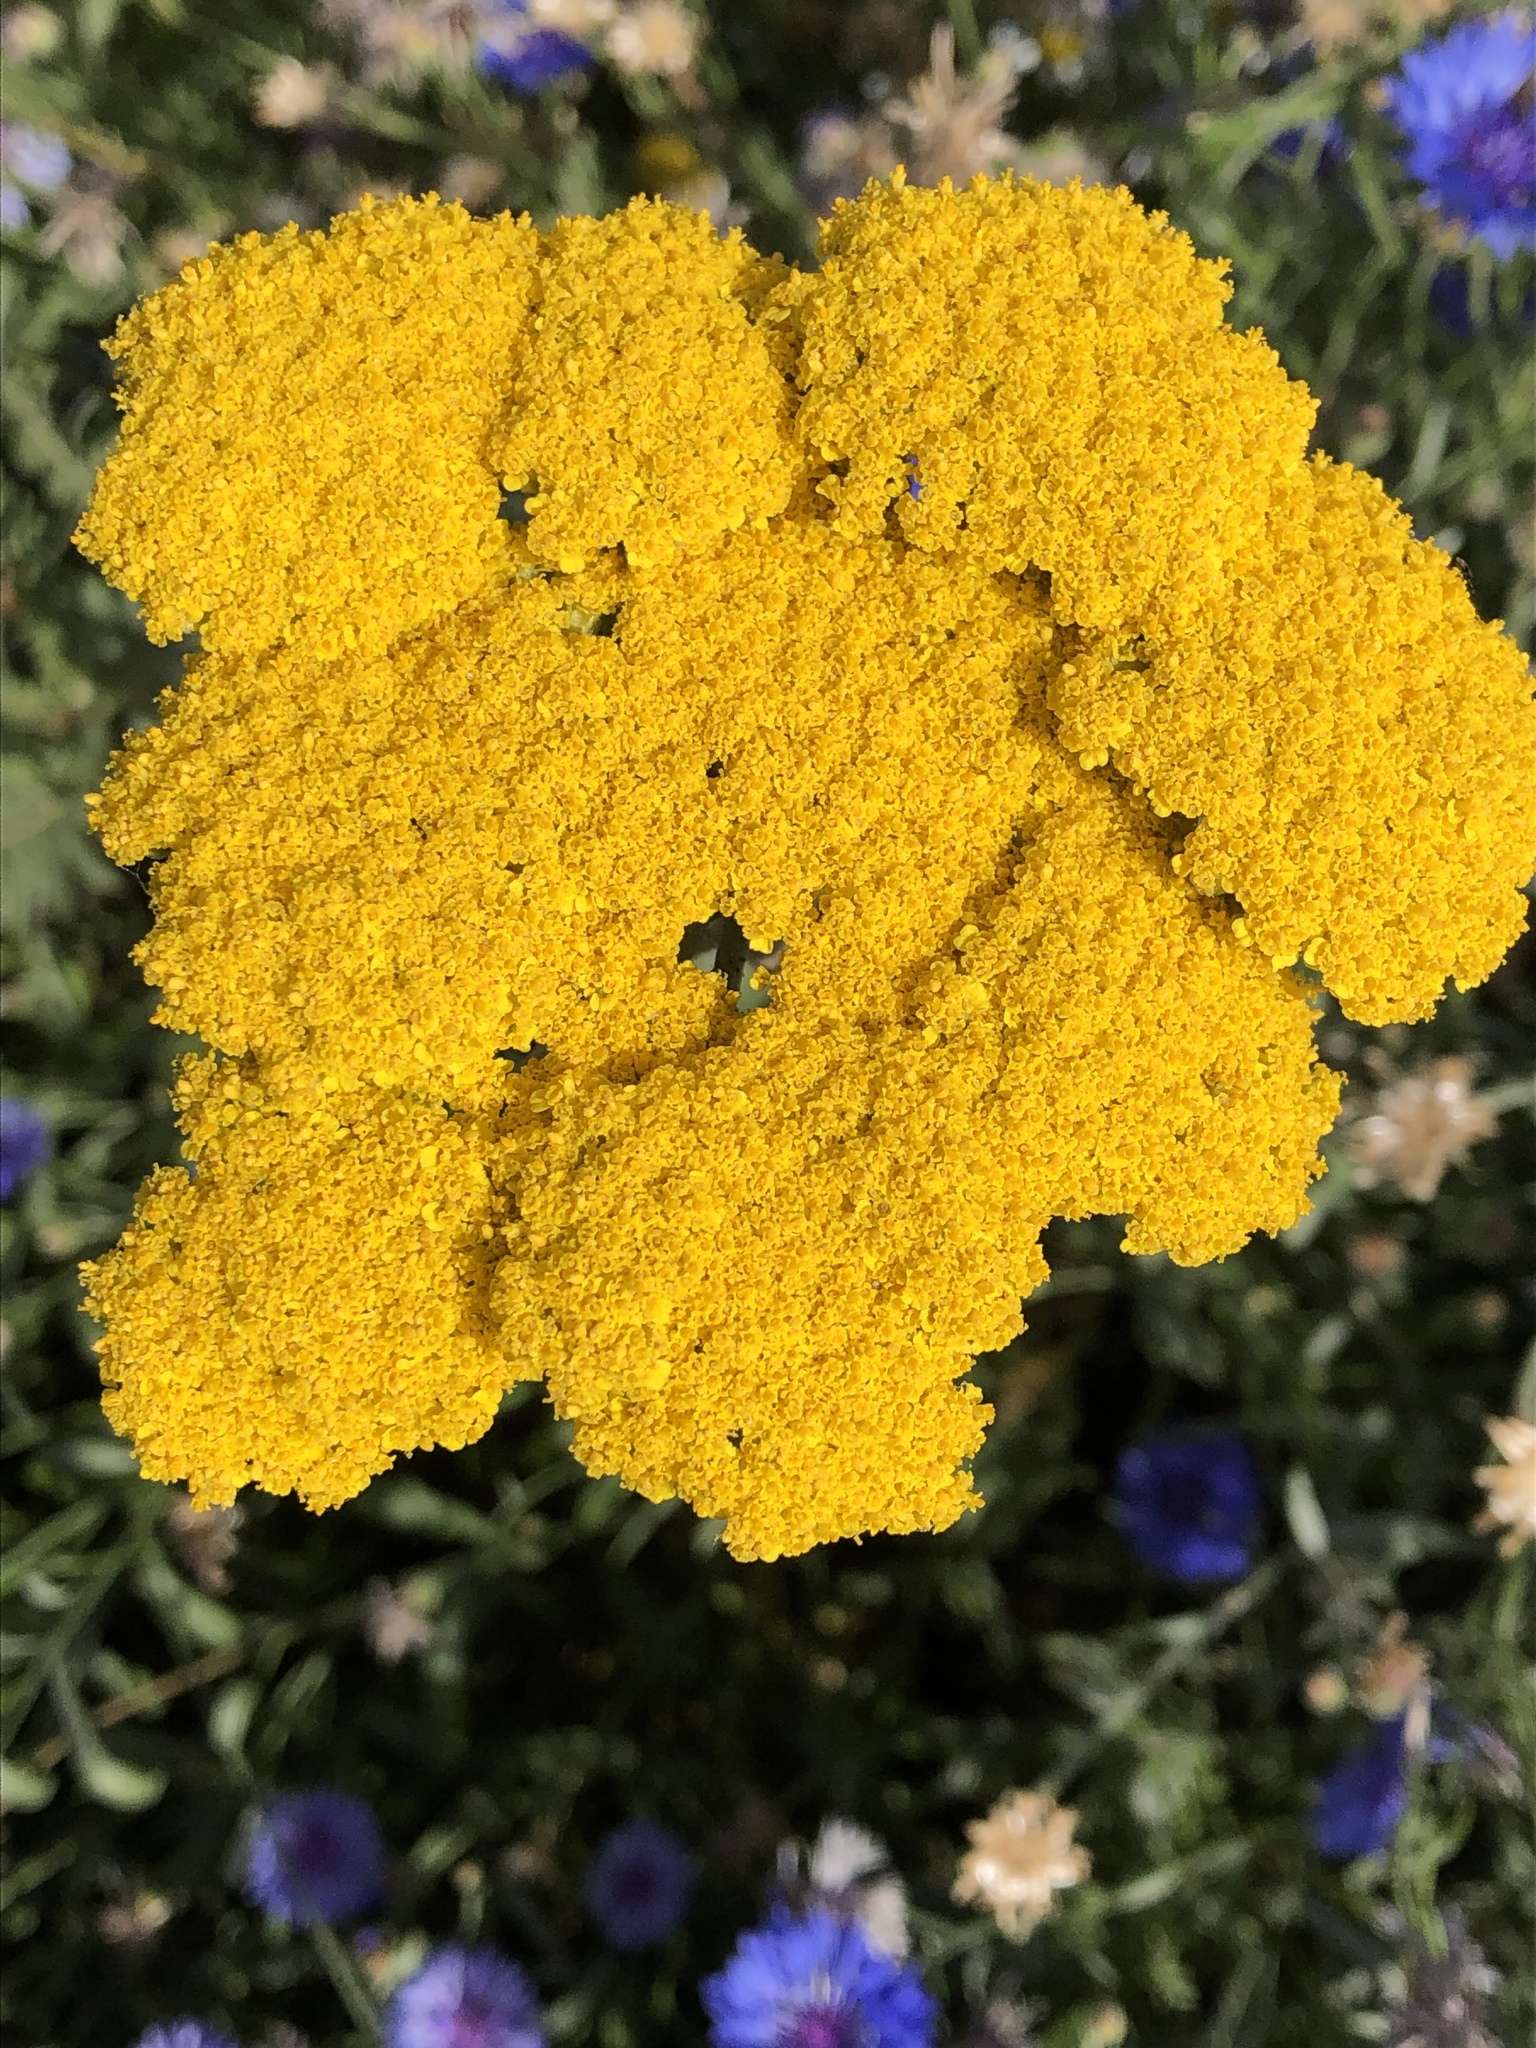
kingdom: Plantae
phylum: Tracheophyta
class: Magnoliopsida
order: Asterales
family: Asteraceae
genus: Achillea
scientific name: Achillea filipendulina
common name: Fernleaf yarrow
